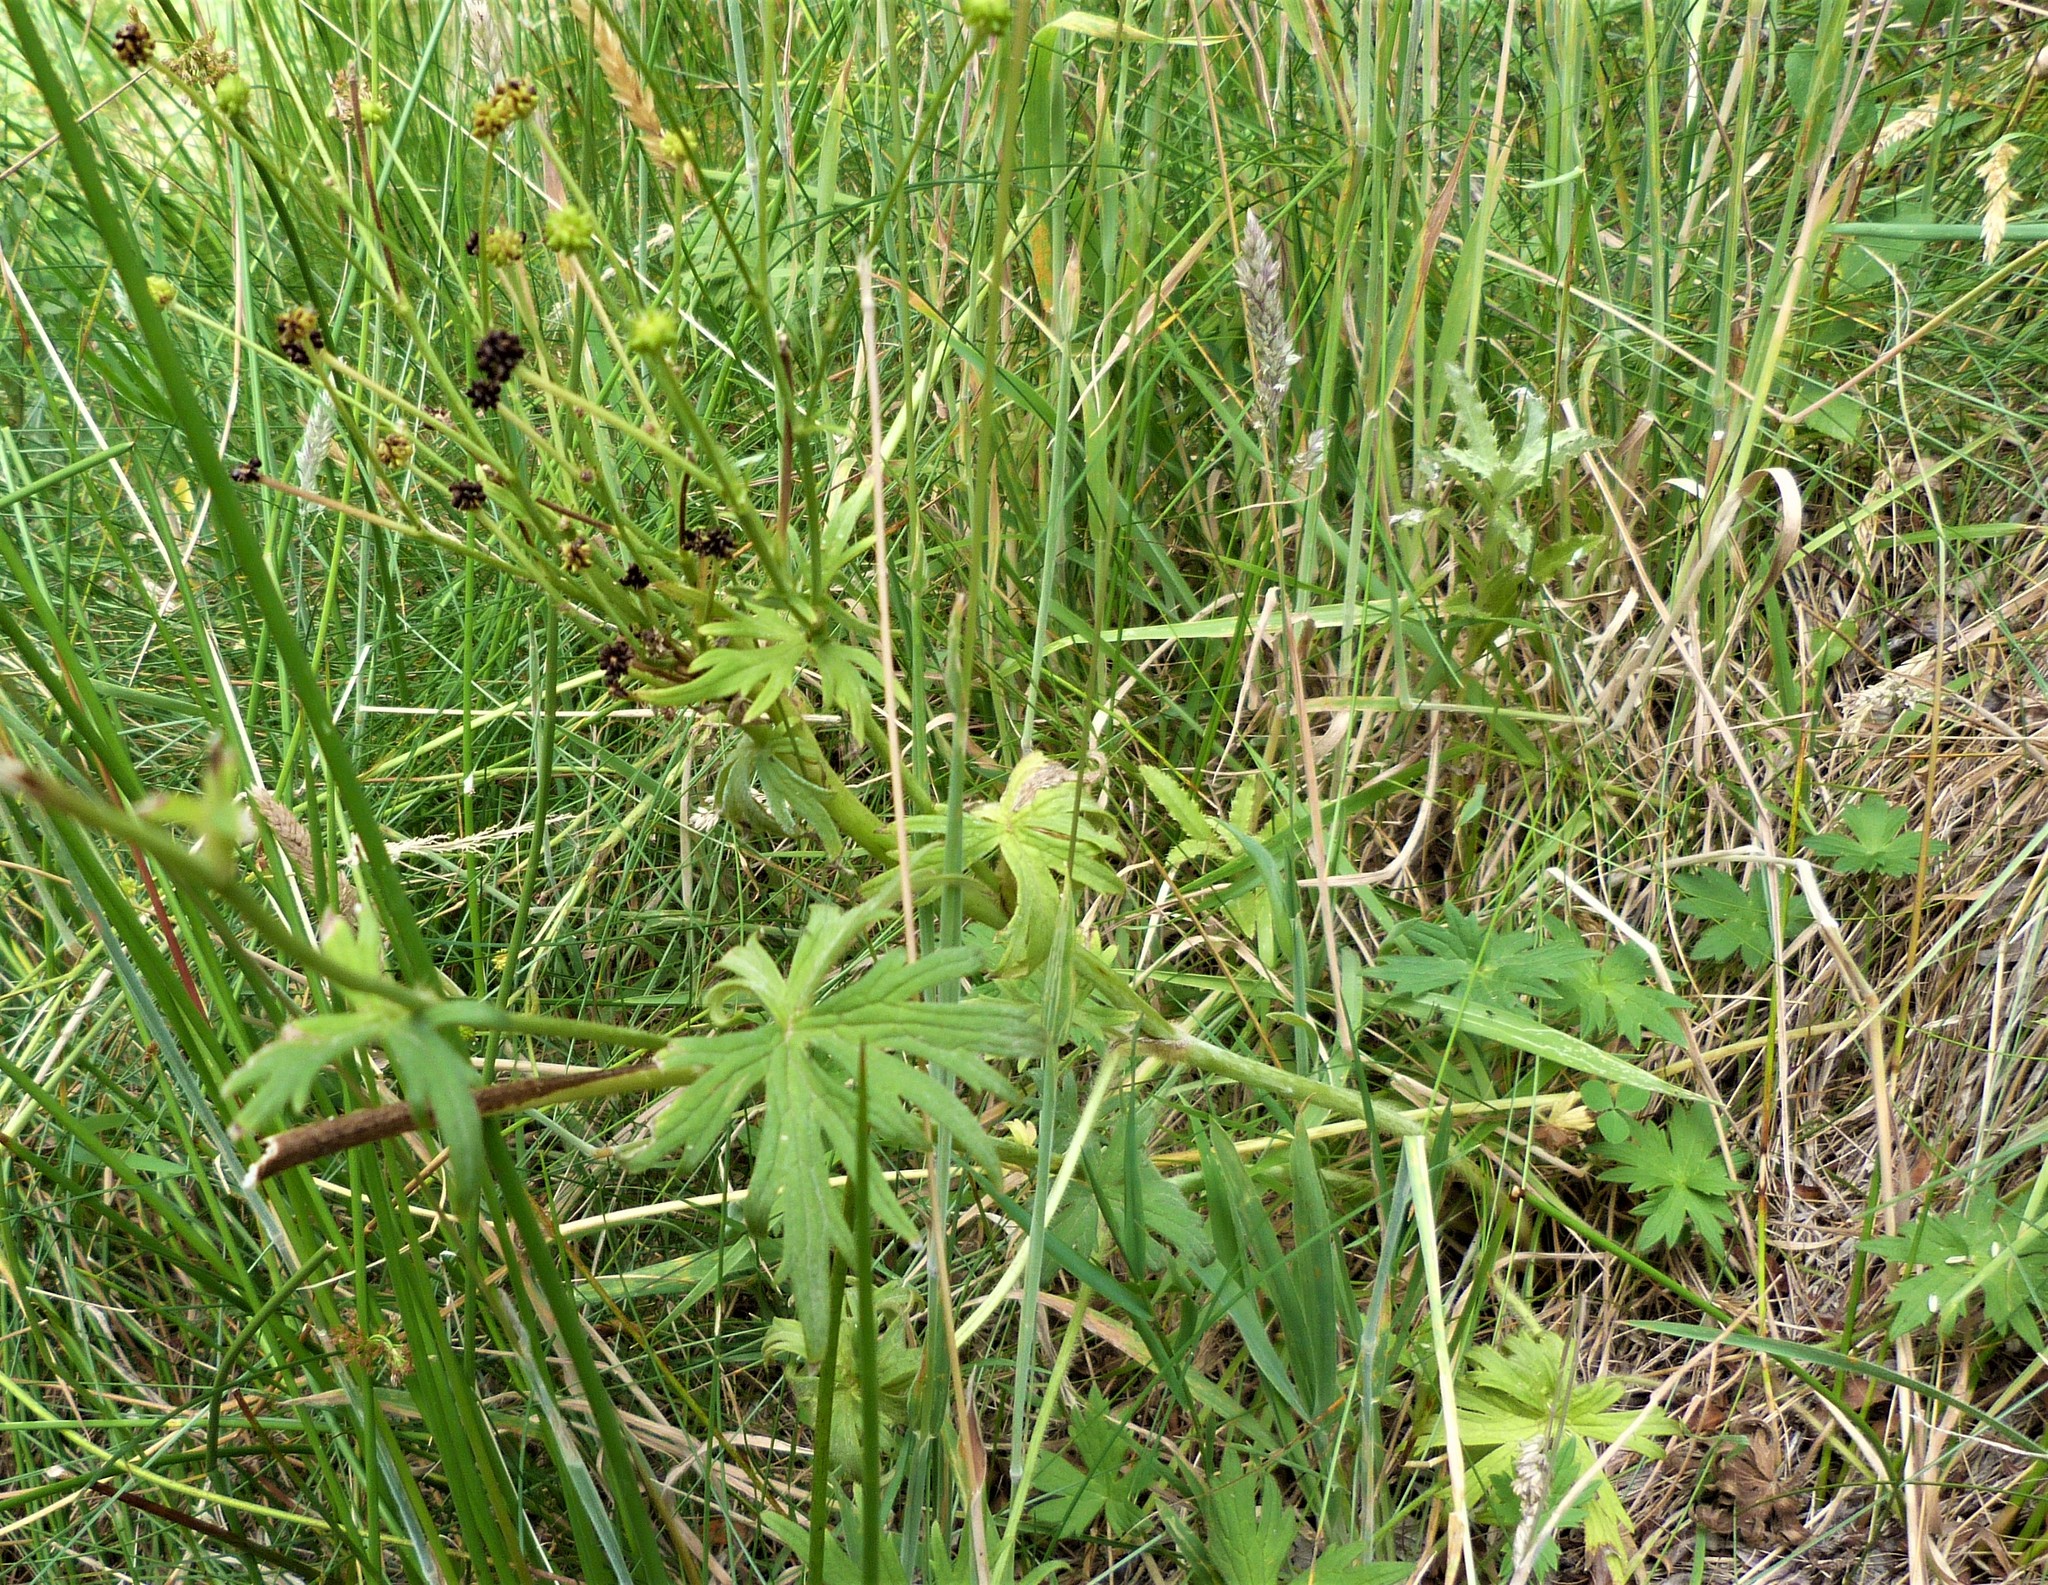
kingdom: Plantae
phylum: Tracheophyta
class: Magnoliopsida
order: Ranunculales
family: Ranunculaceae
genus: Ranunculus
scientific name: Ranunculus acris
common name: Meadow buttercup
